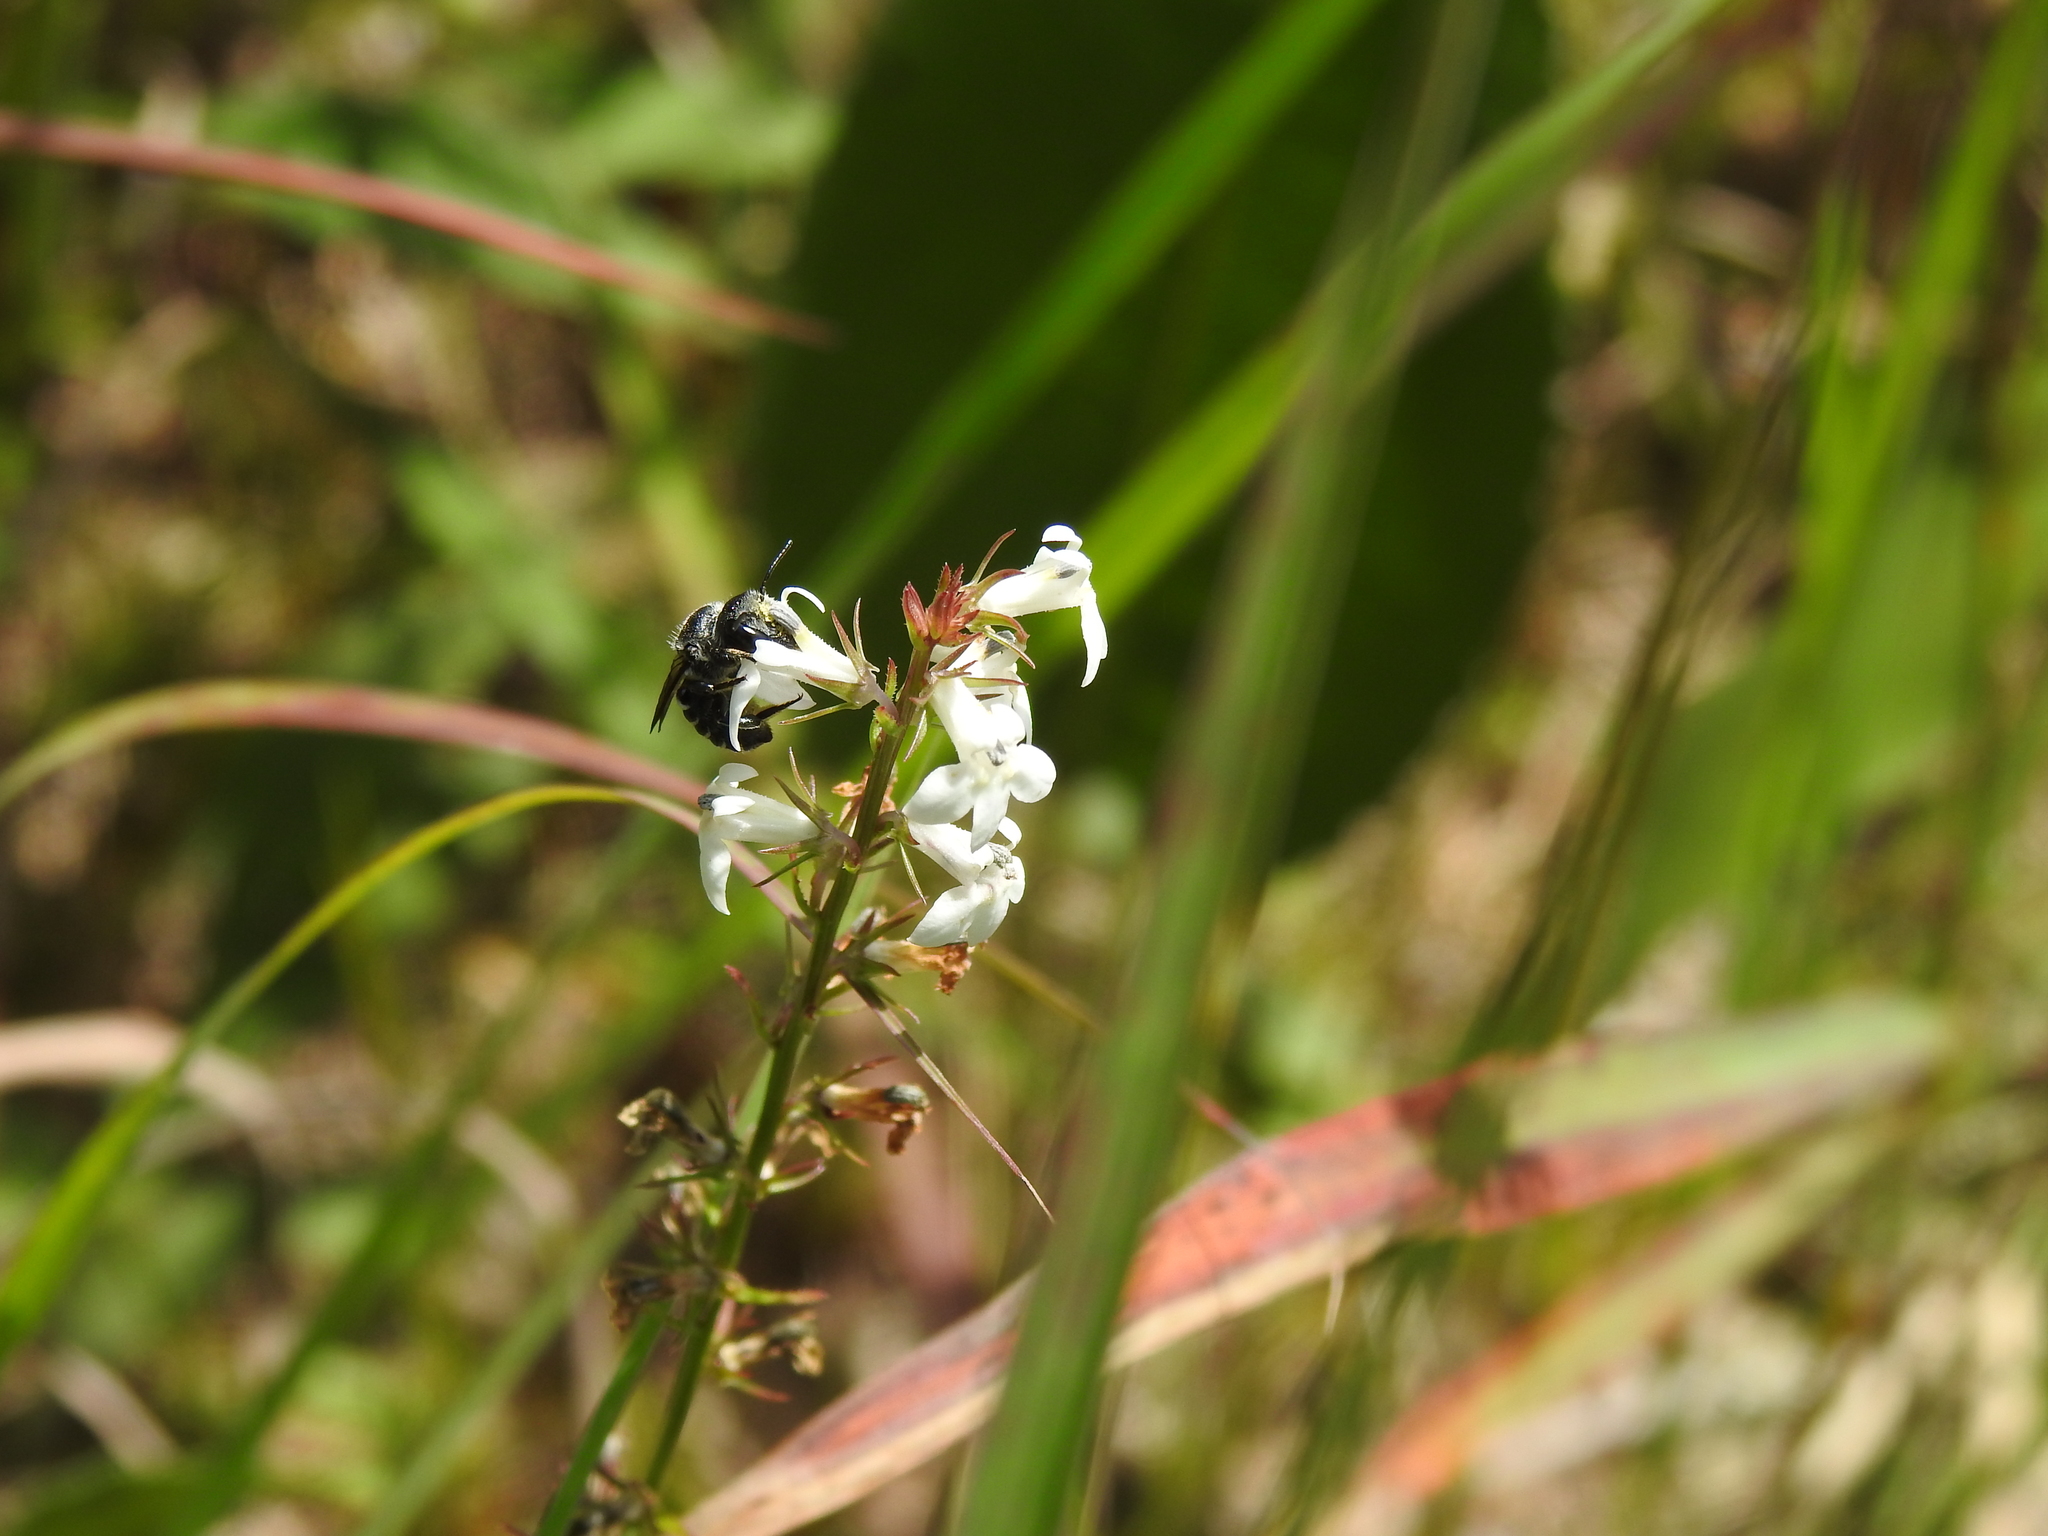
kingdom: Plantae
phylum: Tracheophyta
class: Magnoliopsida
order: Asterales
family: Campanulaceae
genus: Lobelia
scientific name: Lobelia spicata
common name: Pale-spike lobelia
